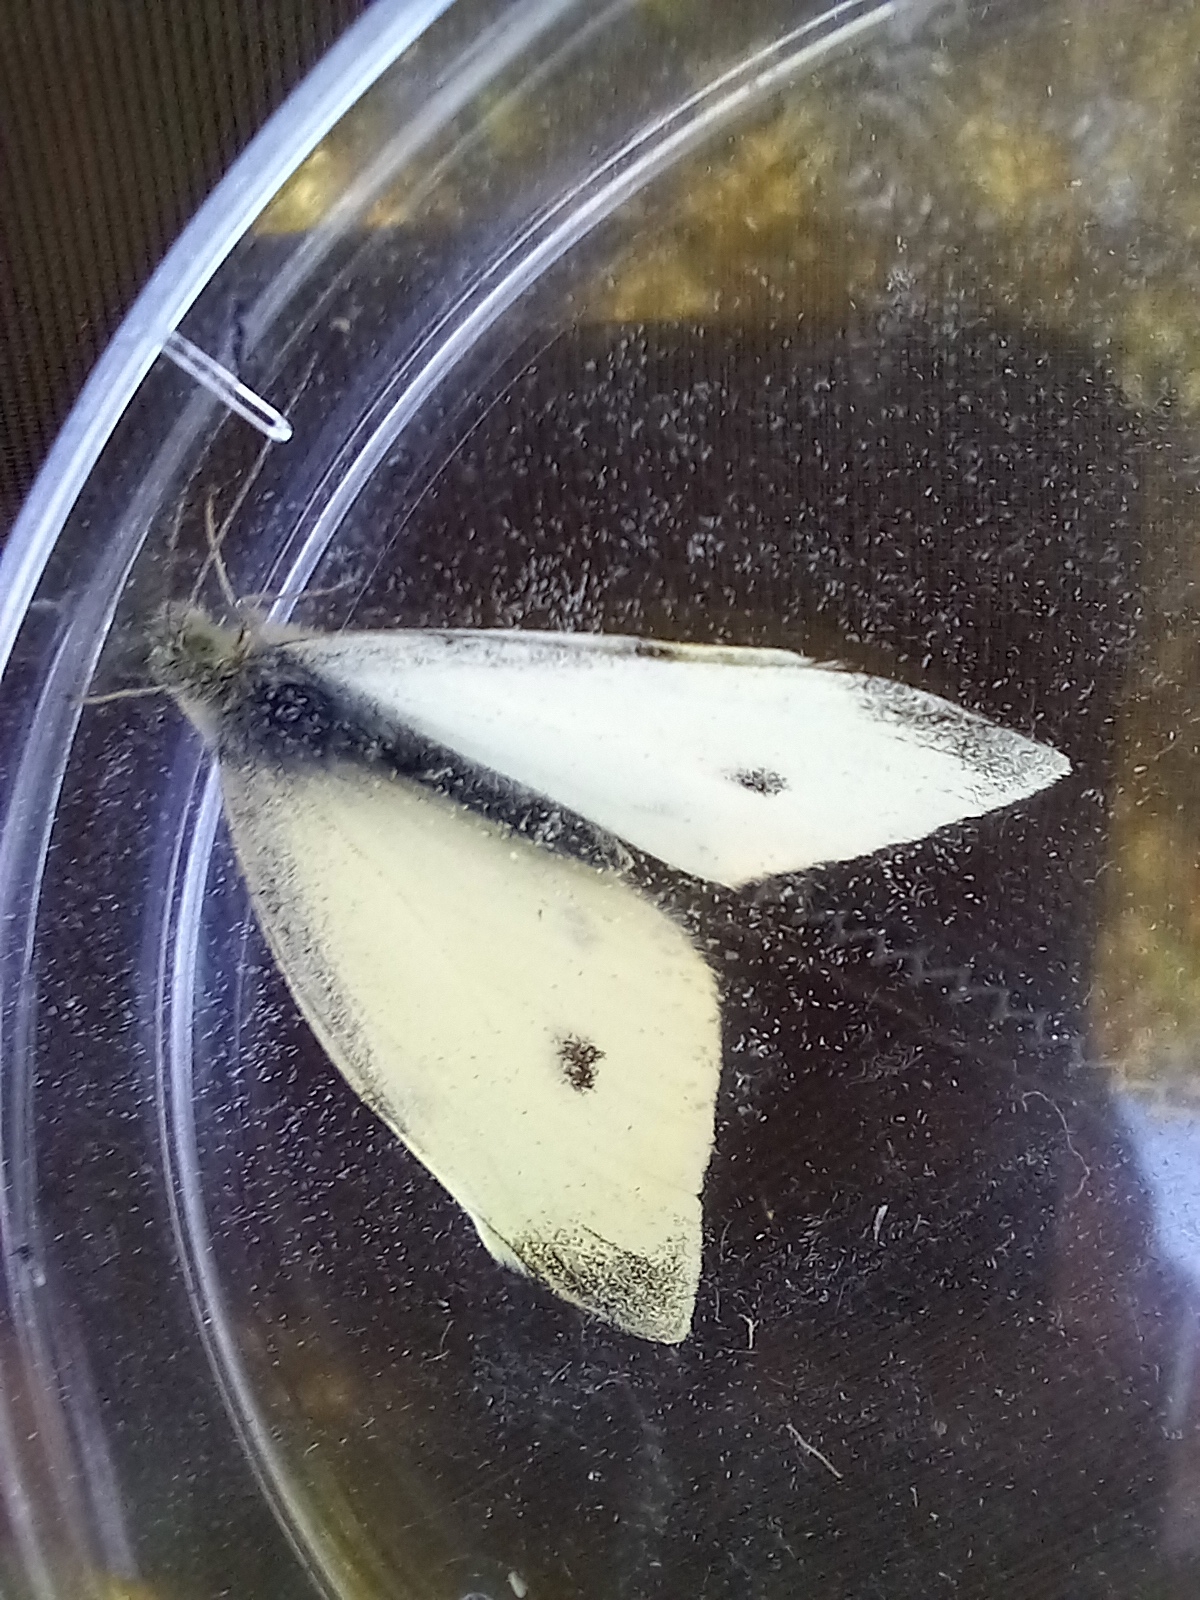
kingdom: Animalia
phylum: Arthropoda
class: Insecta
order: Lepidoptera
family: Pieridae
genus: Pieris
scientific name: Pieris rapae
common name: Small white
